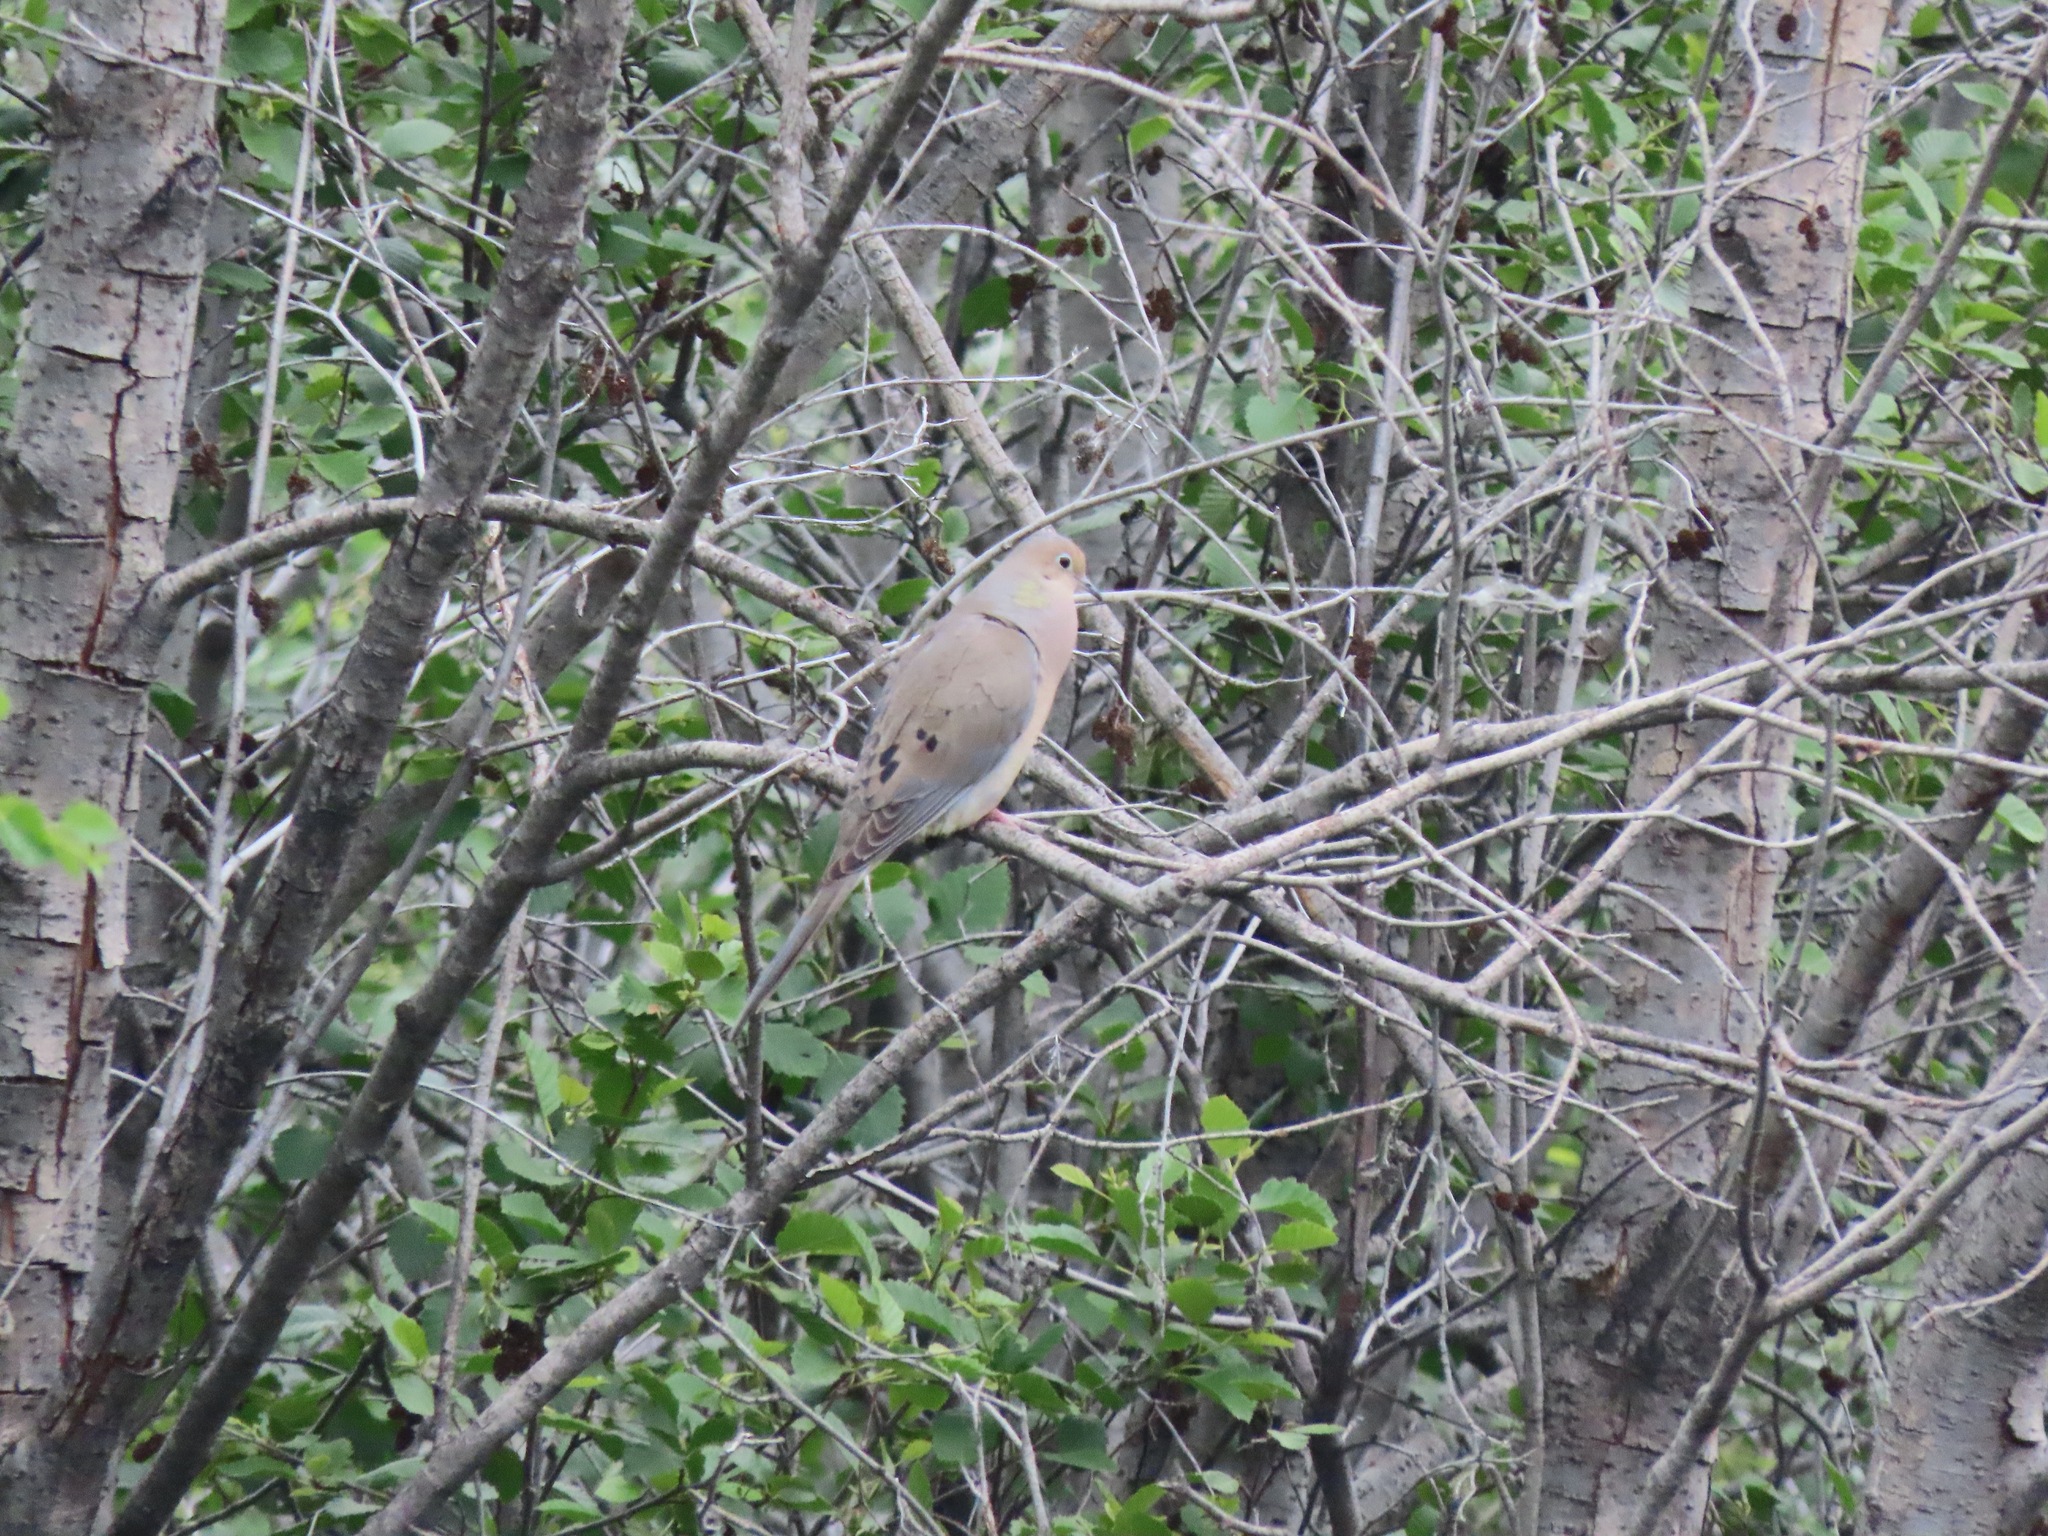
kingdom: Animalia
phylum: Chordata
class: Aves
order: Columbiformes
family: Columbidae
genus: Zenaida
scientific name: Zenaida macroura
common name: Mourning dove
